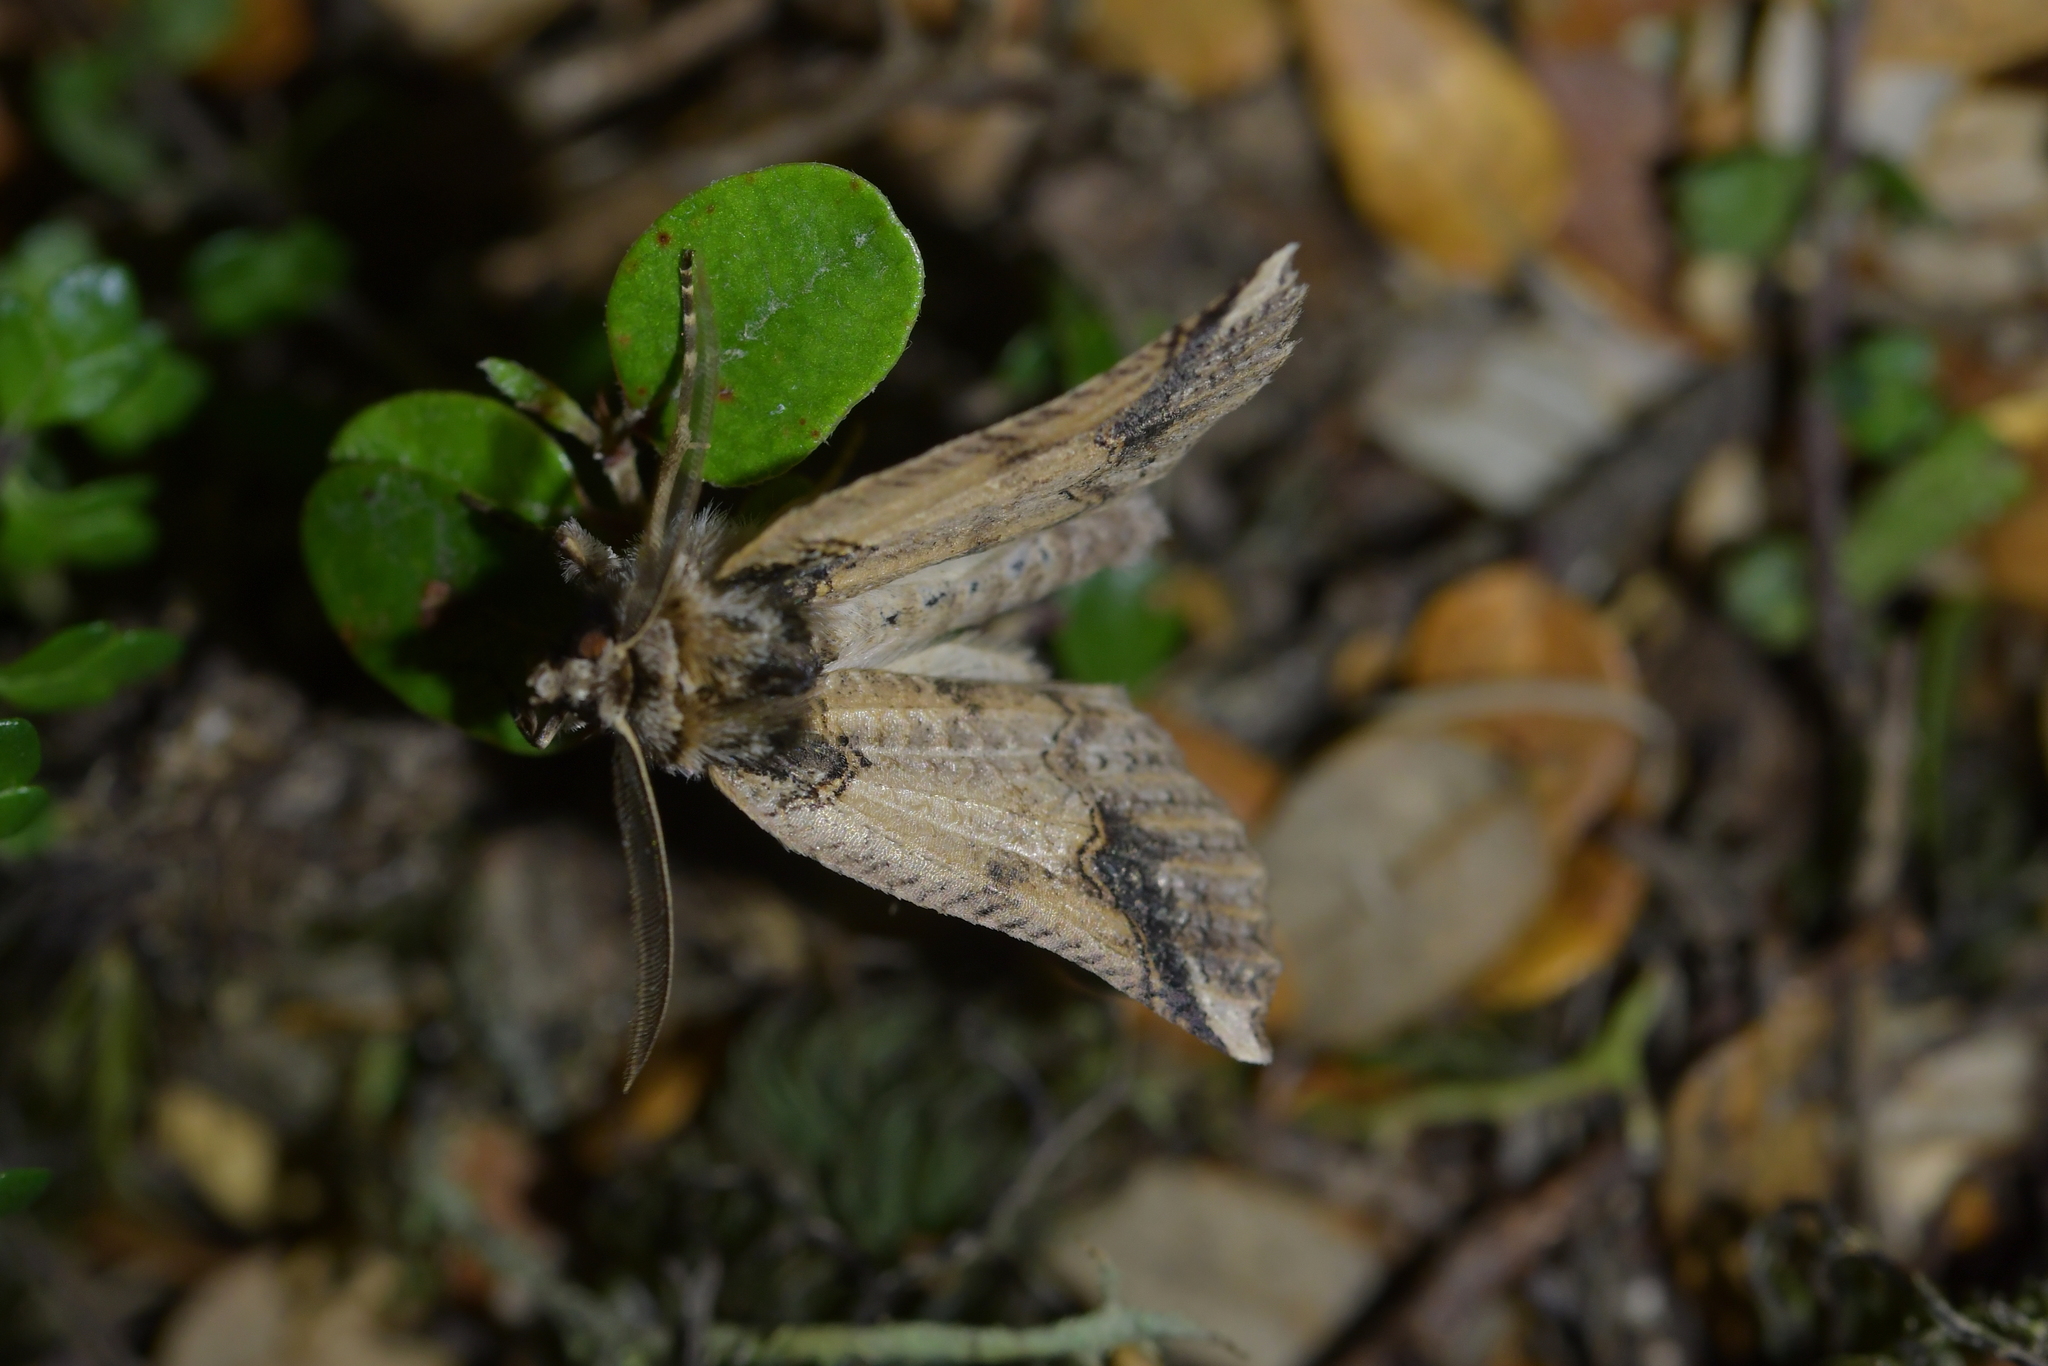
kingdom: Animalia
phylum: Arthropoda
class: Insecta
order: Lepidoptera
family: Geometridae
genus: Declana
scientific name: Declana
